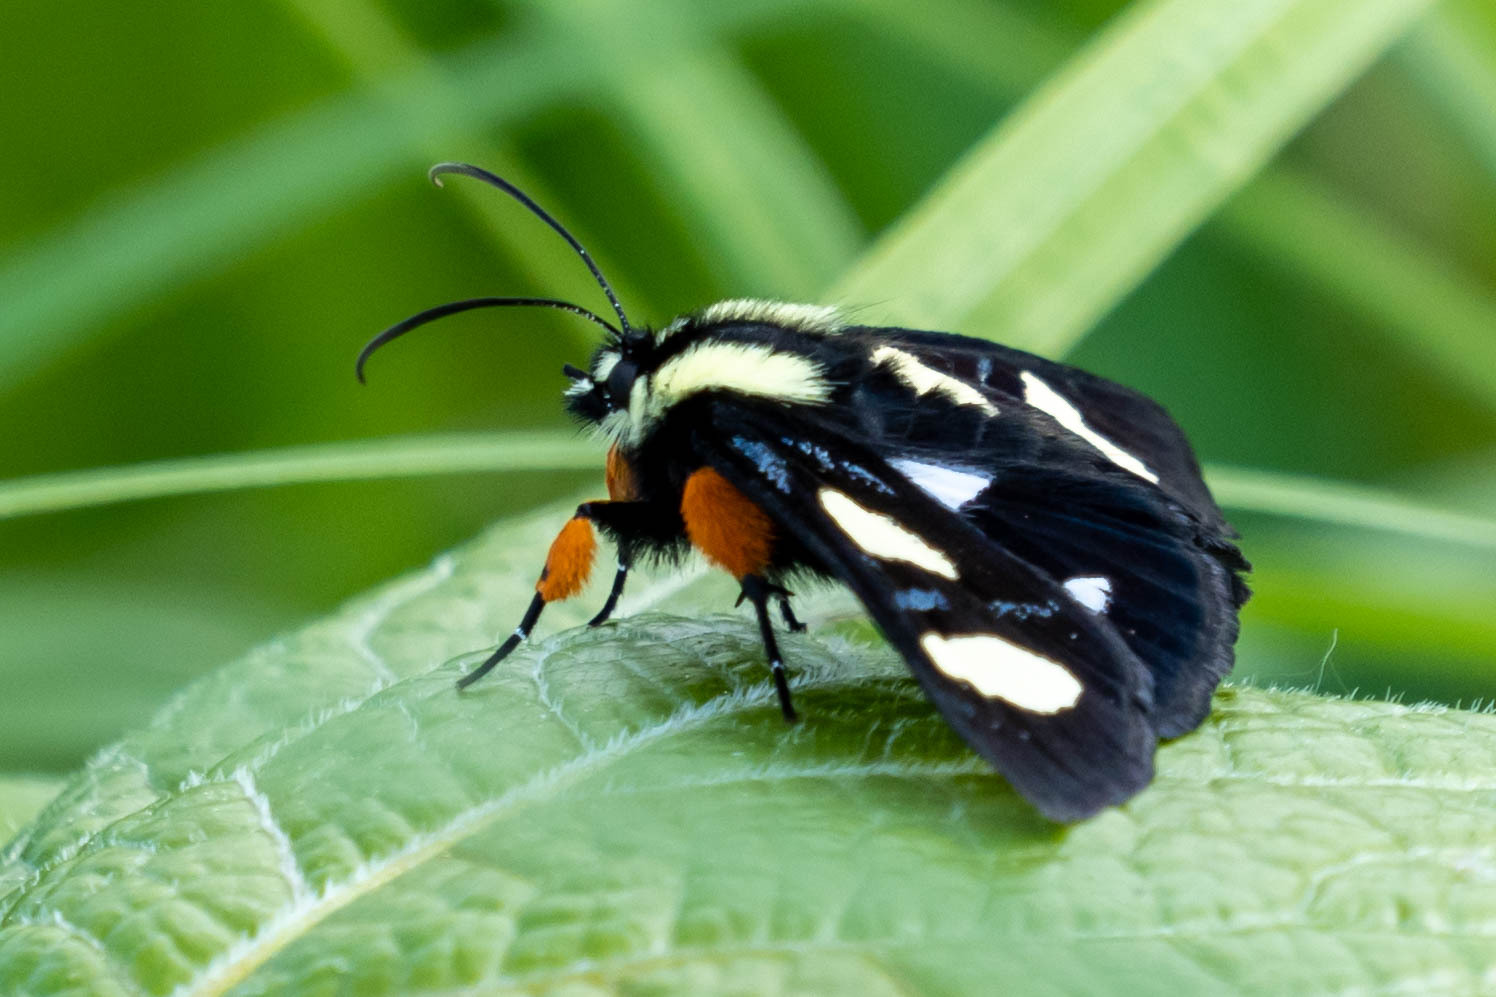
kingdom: Animalia
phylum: Arthropoda
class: Insecta
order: Lepidoptera
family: Noctuidae
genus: Alypia
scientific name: Alypia octomaculata
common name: Eight-spotted forester
